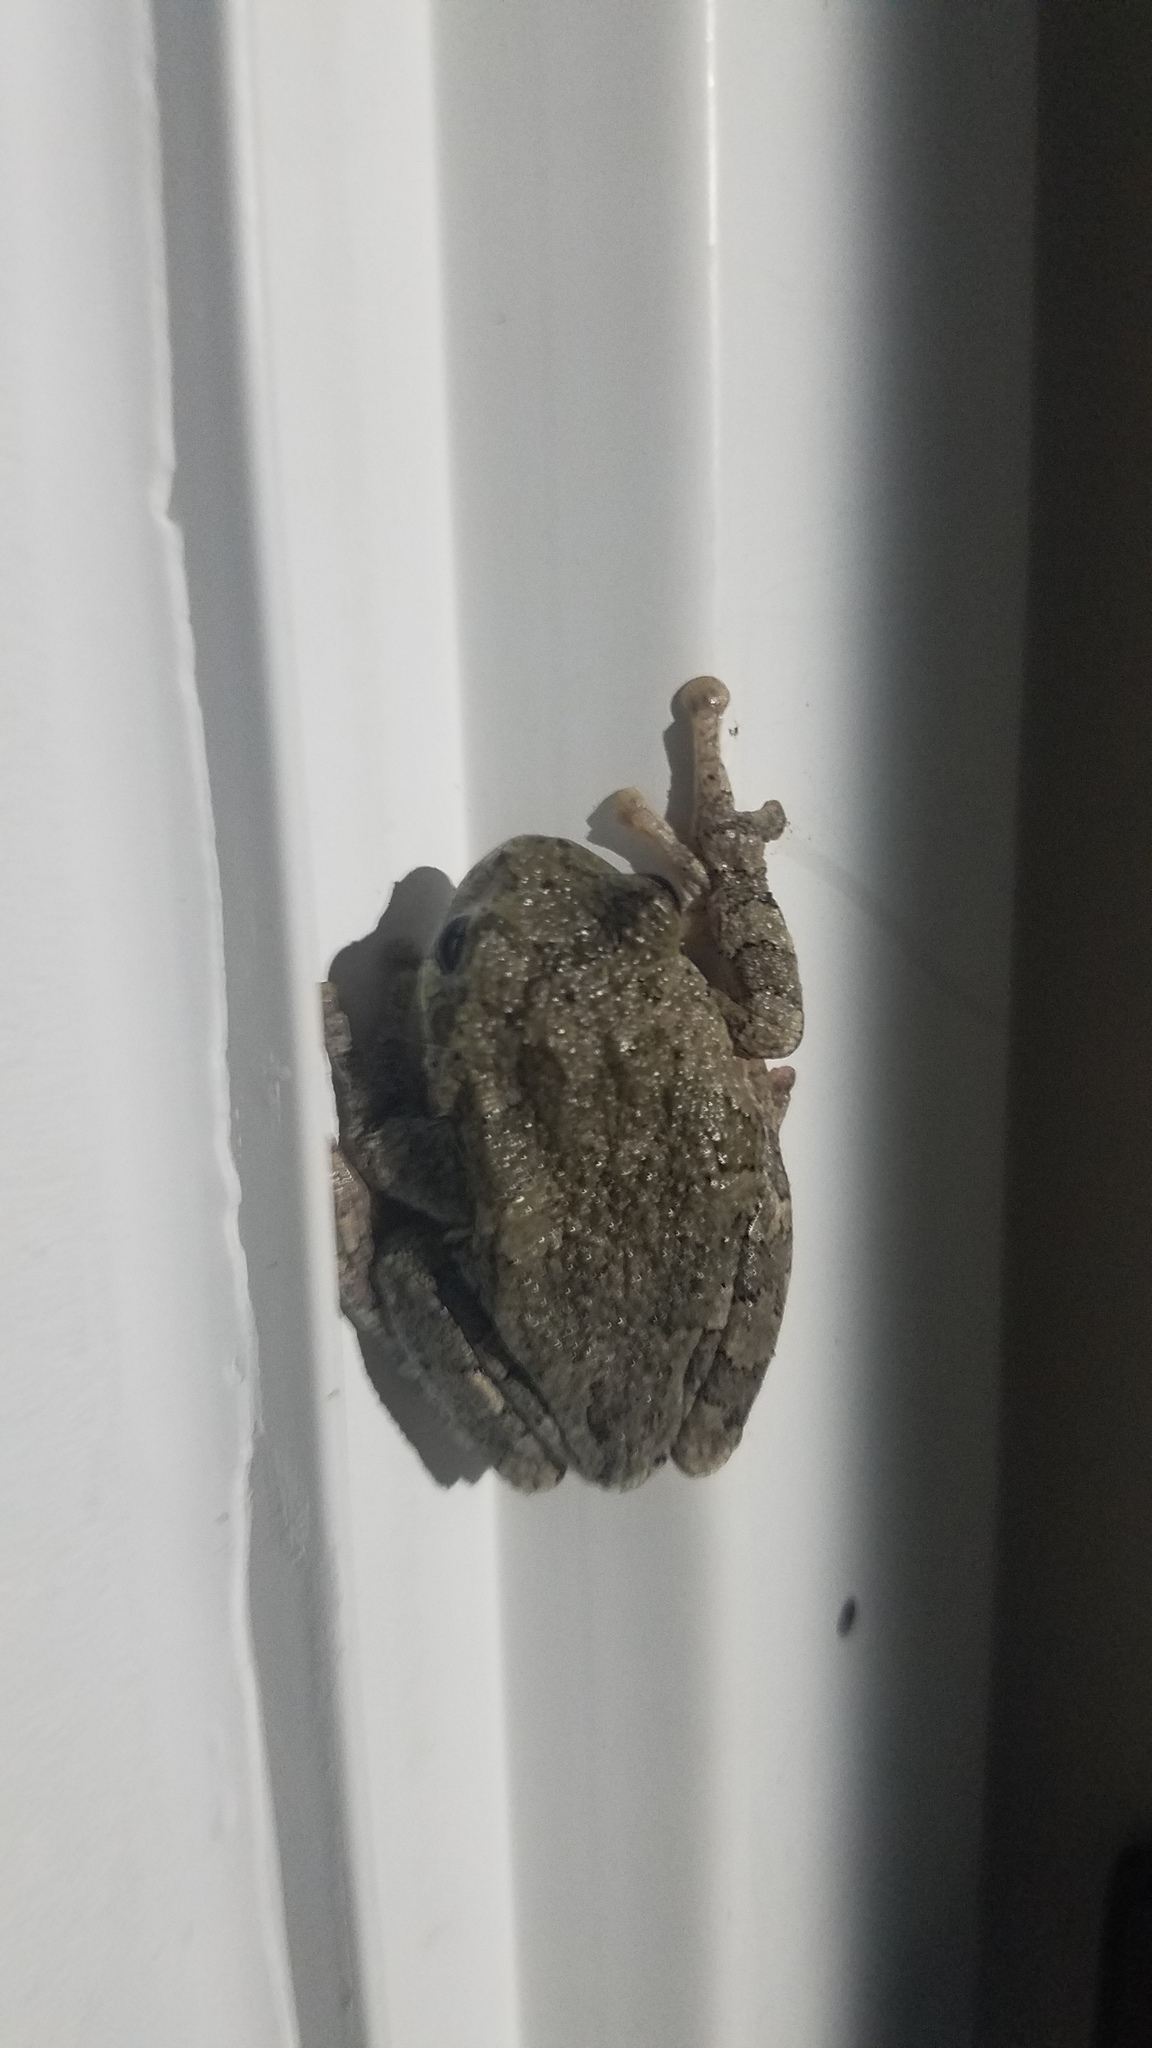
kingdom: Animalia
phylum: Chordata
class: Amphibia
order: Anura
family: Hylidae
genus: Hyla
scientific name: Hyla
